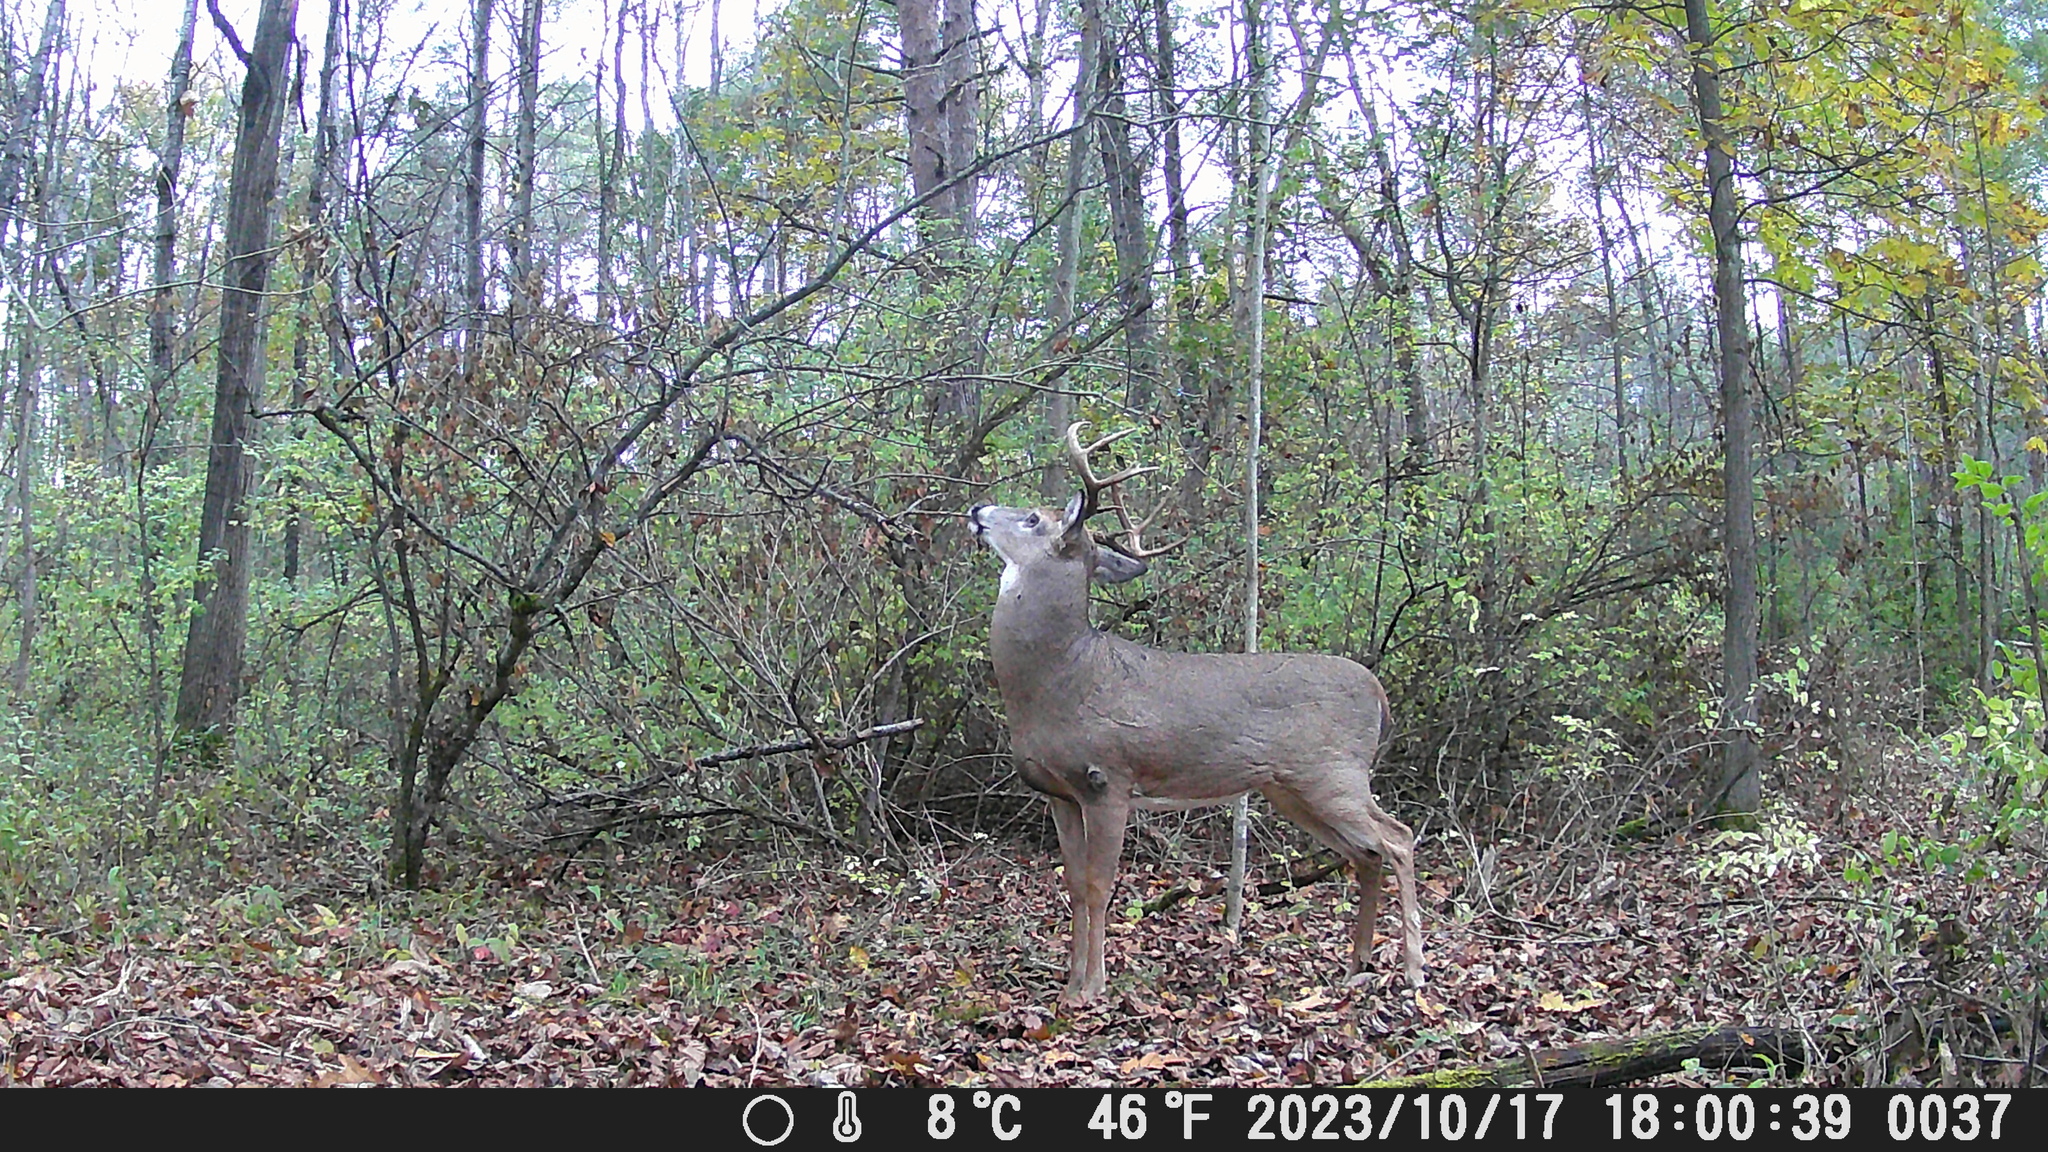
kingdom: Animalia
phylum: Chordata
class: Mammalia
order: Artiodactyla
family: Cervidae
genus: Odocoileus
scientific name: Odocoileus virginianus
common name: White-tailed deer
